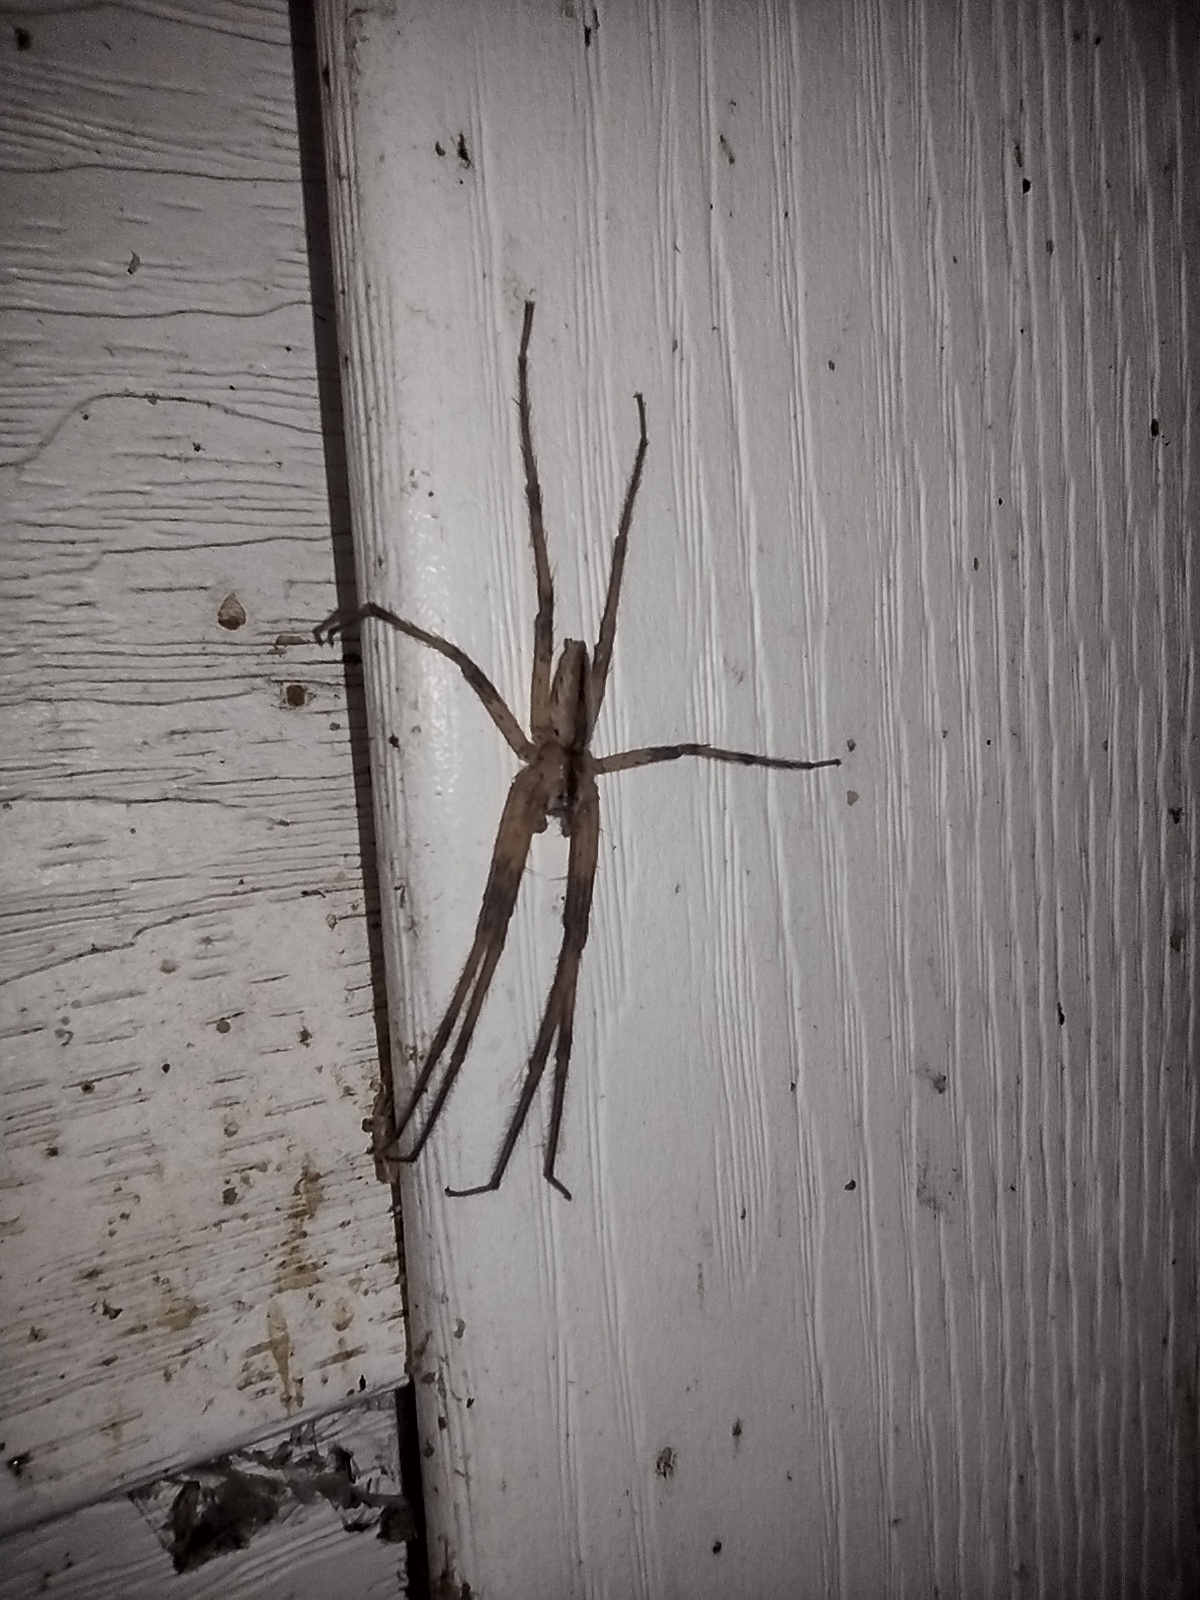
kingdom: Animalia
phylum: Arthropoda
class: Arachnida
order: Araneae
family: Pisauridae
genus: Pisaurina
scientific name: Pisaurina mira
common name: American nursery web spider
